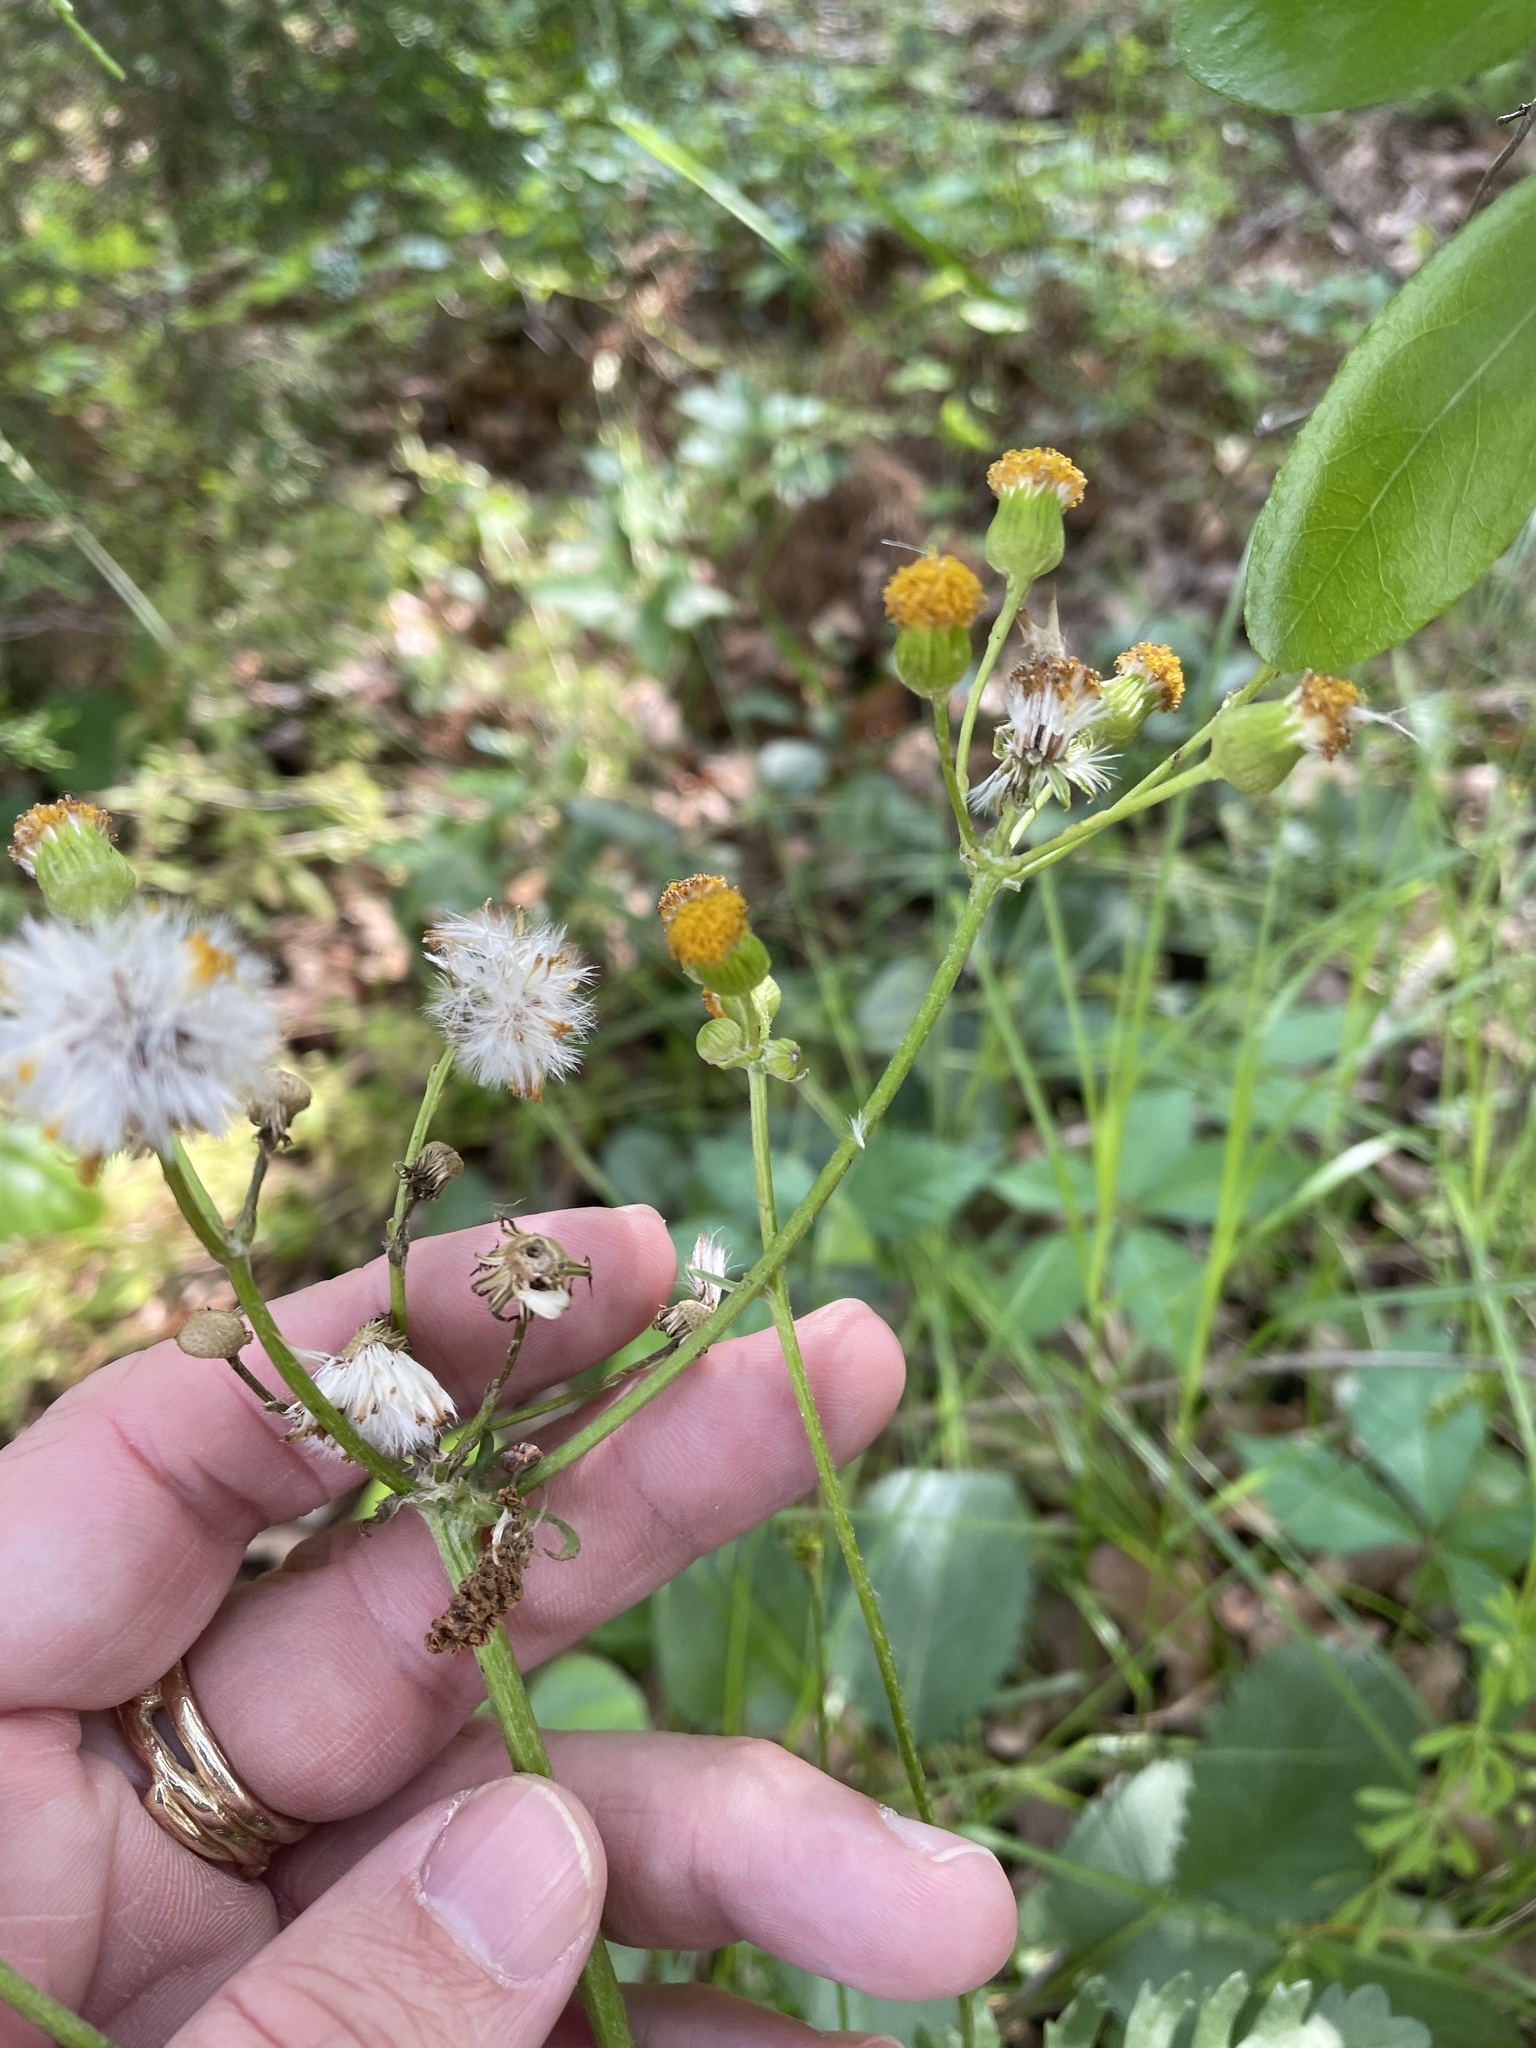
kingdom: Plantae
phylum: Tracheophyta
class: Magnoliopsida
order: Asterales
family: Asteraceae
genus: Packera
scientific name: Packera plattensis
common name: Prairie groundsel
